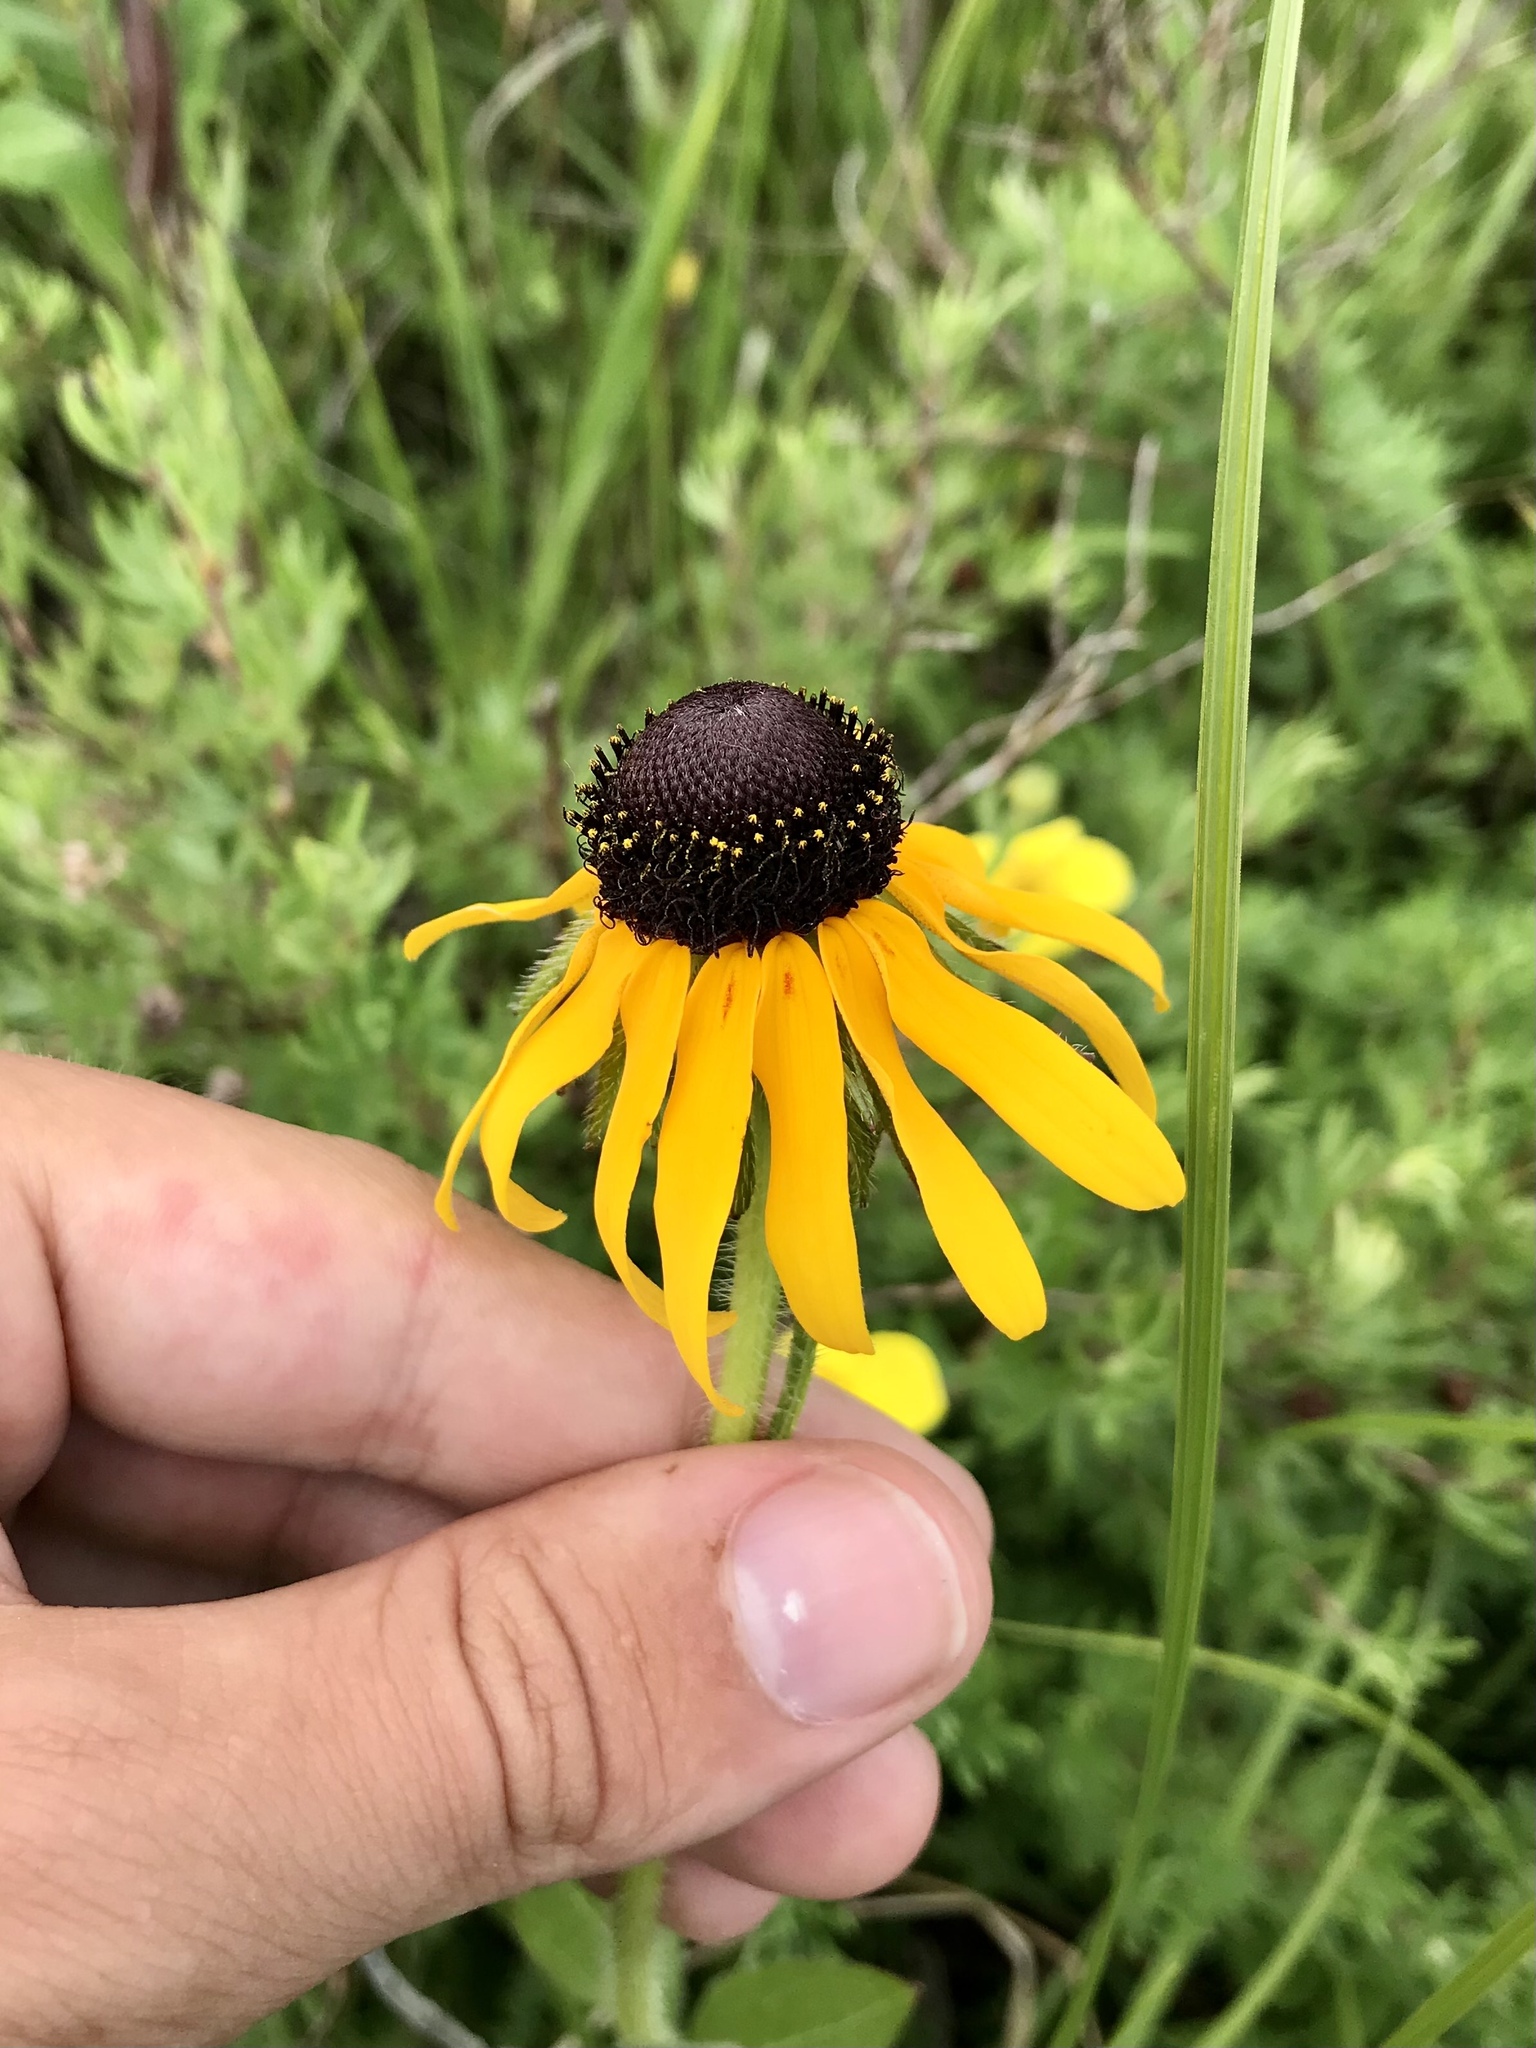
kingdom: Plantae
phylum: Tracheophyta
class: Magnoliopsida
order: Asterales
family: Asteraceae
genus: Rudbeckia
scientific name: Rudbeckia hirta
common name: Black-eyed-susan
